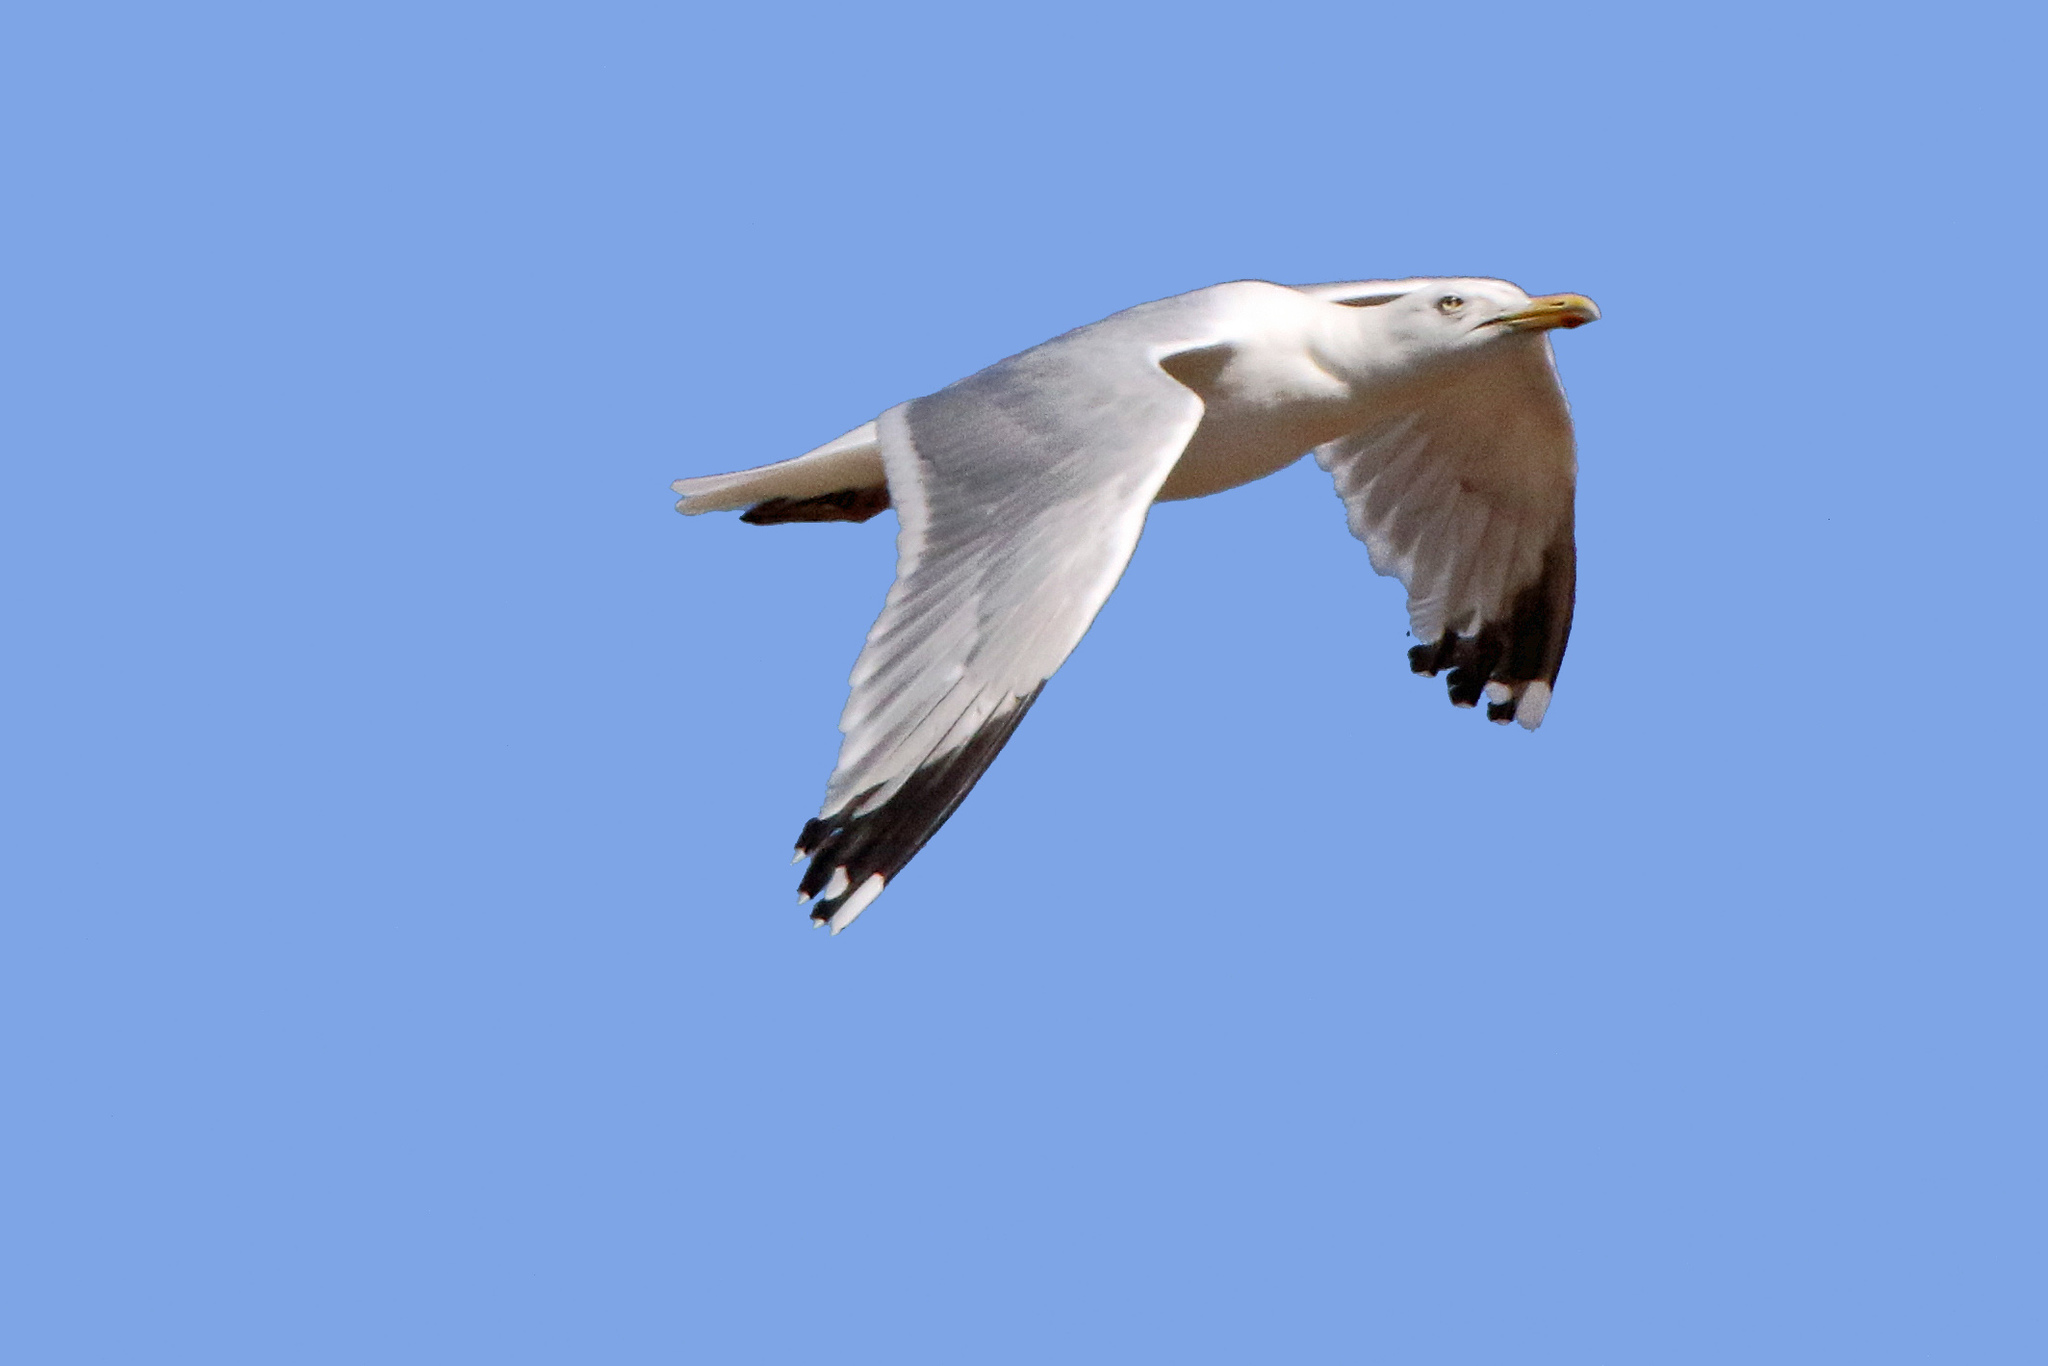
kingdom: Animalia
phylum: Chordata
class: Aves
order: Charadriiformes
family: Laridae
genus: Larus
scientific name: Larus argentatus
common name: Herring gull
